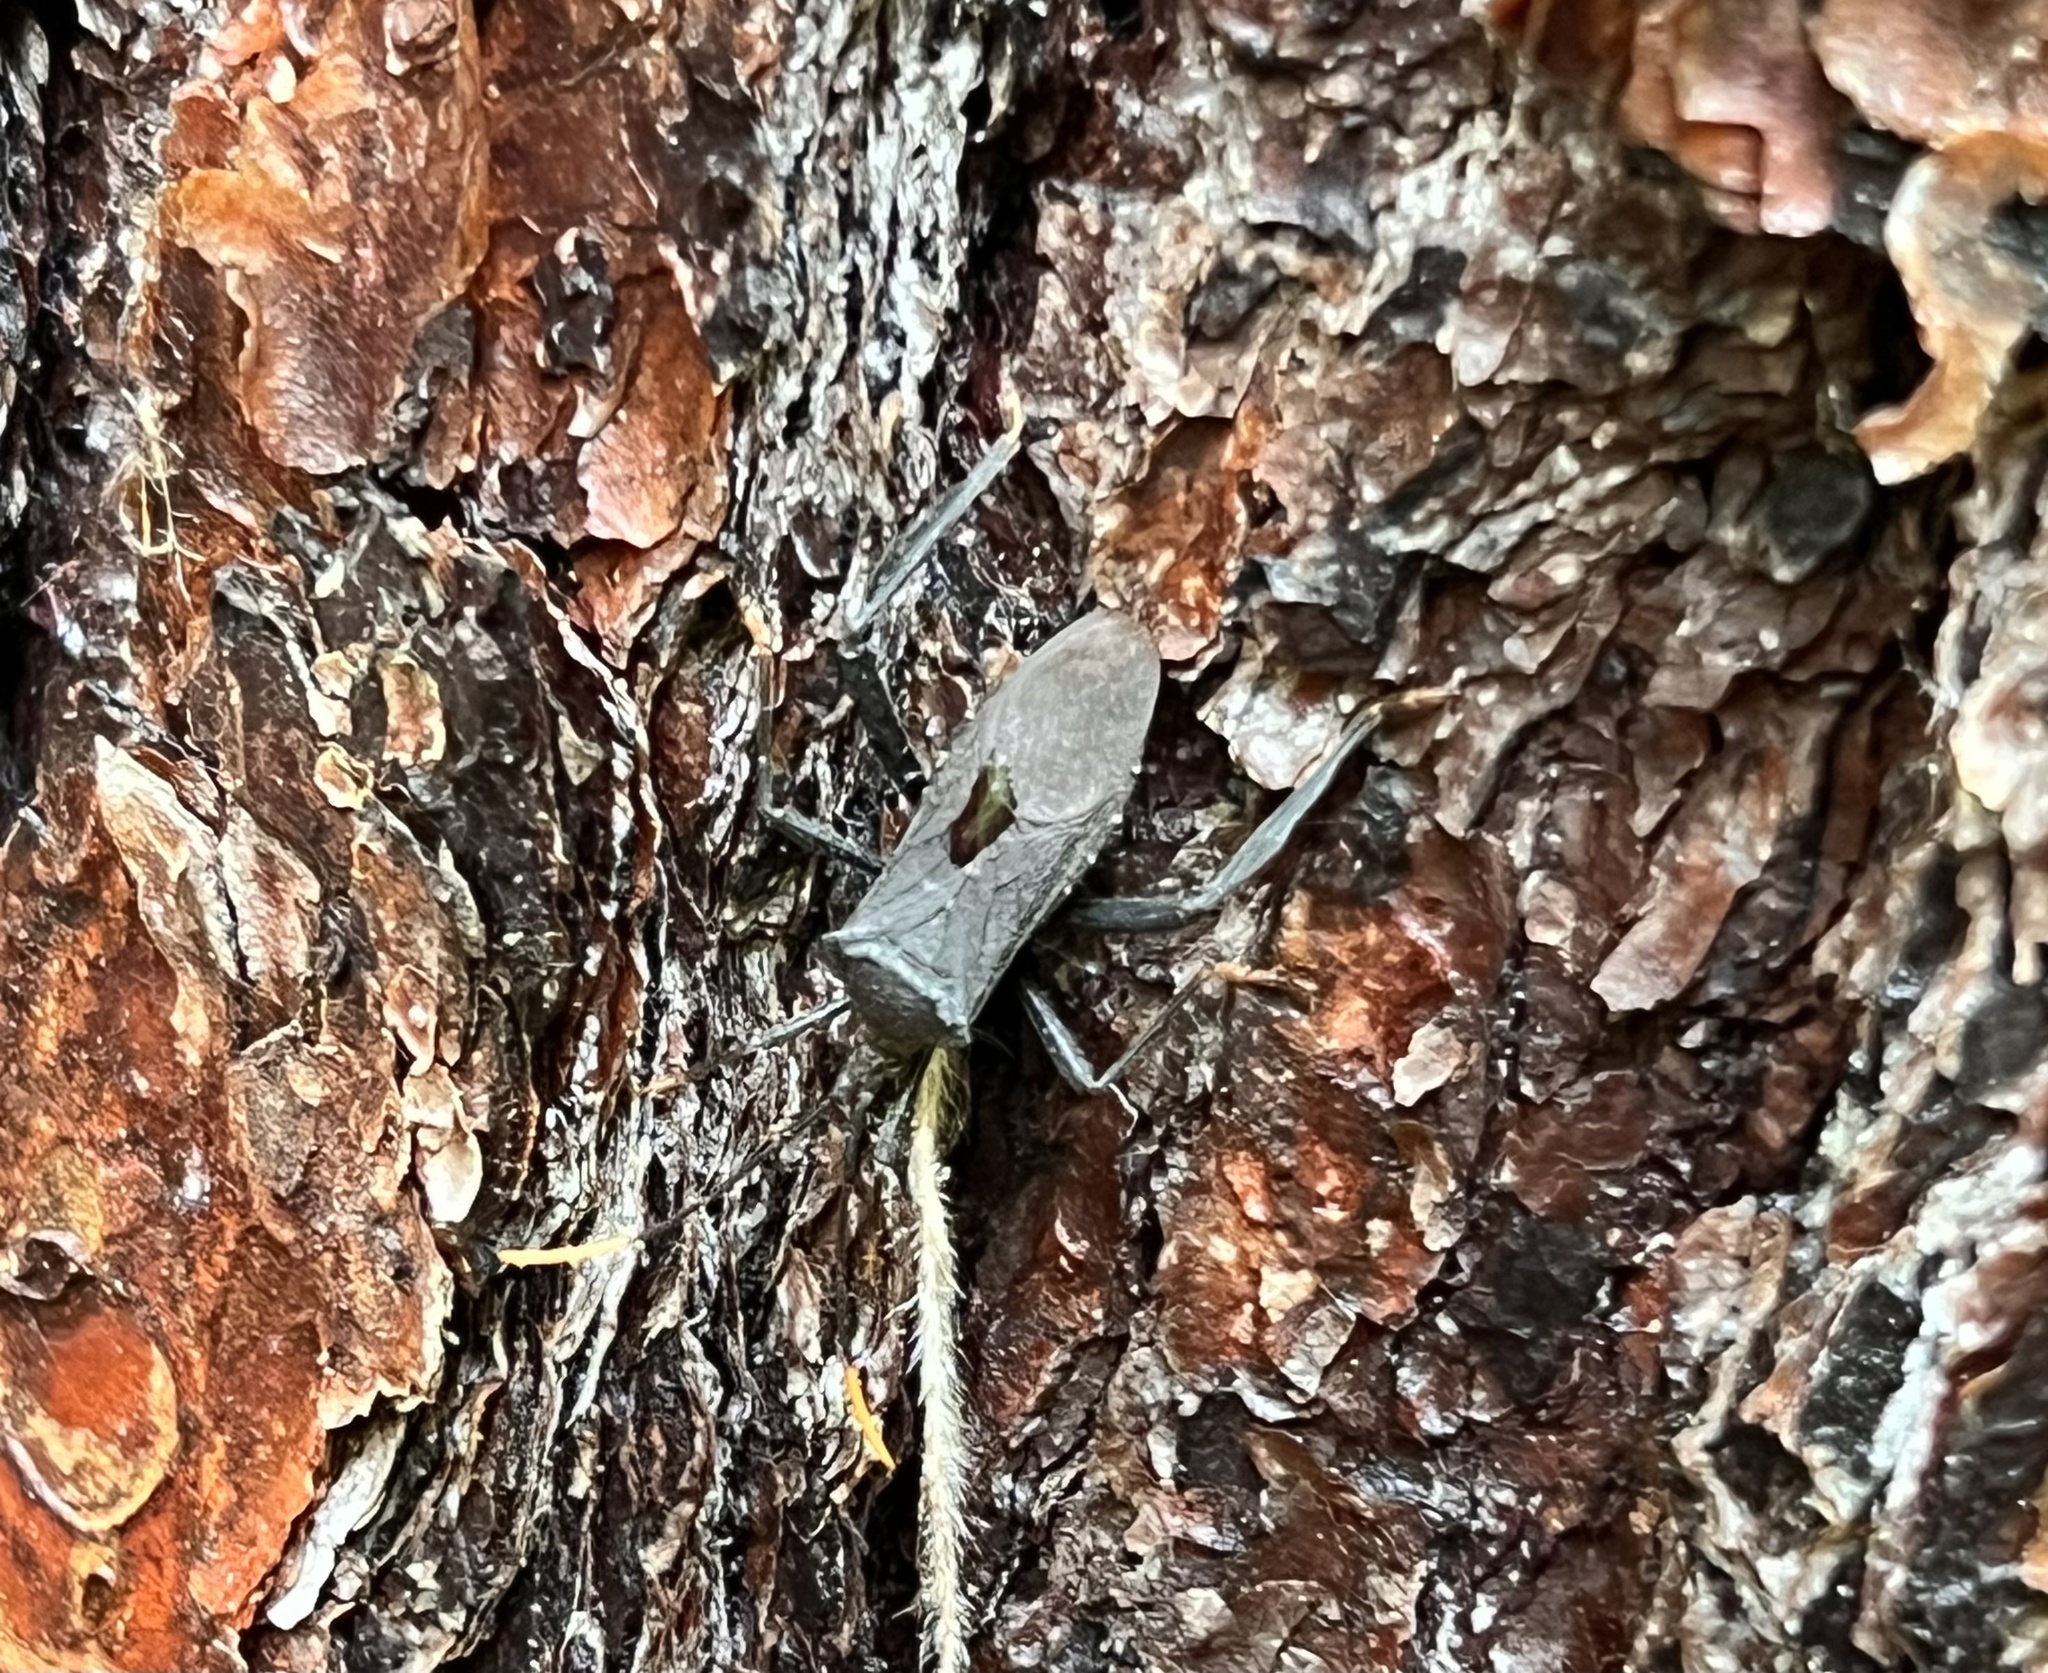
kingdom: Animalia
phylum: Arthropoda
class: Insecta
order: Hemiptera
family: Coreidae
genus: Acanthocephala
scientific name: Acanthocephala terminalis
